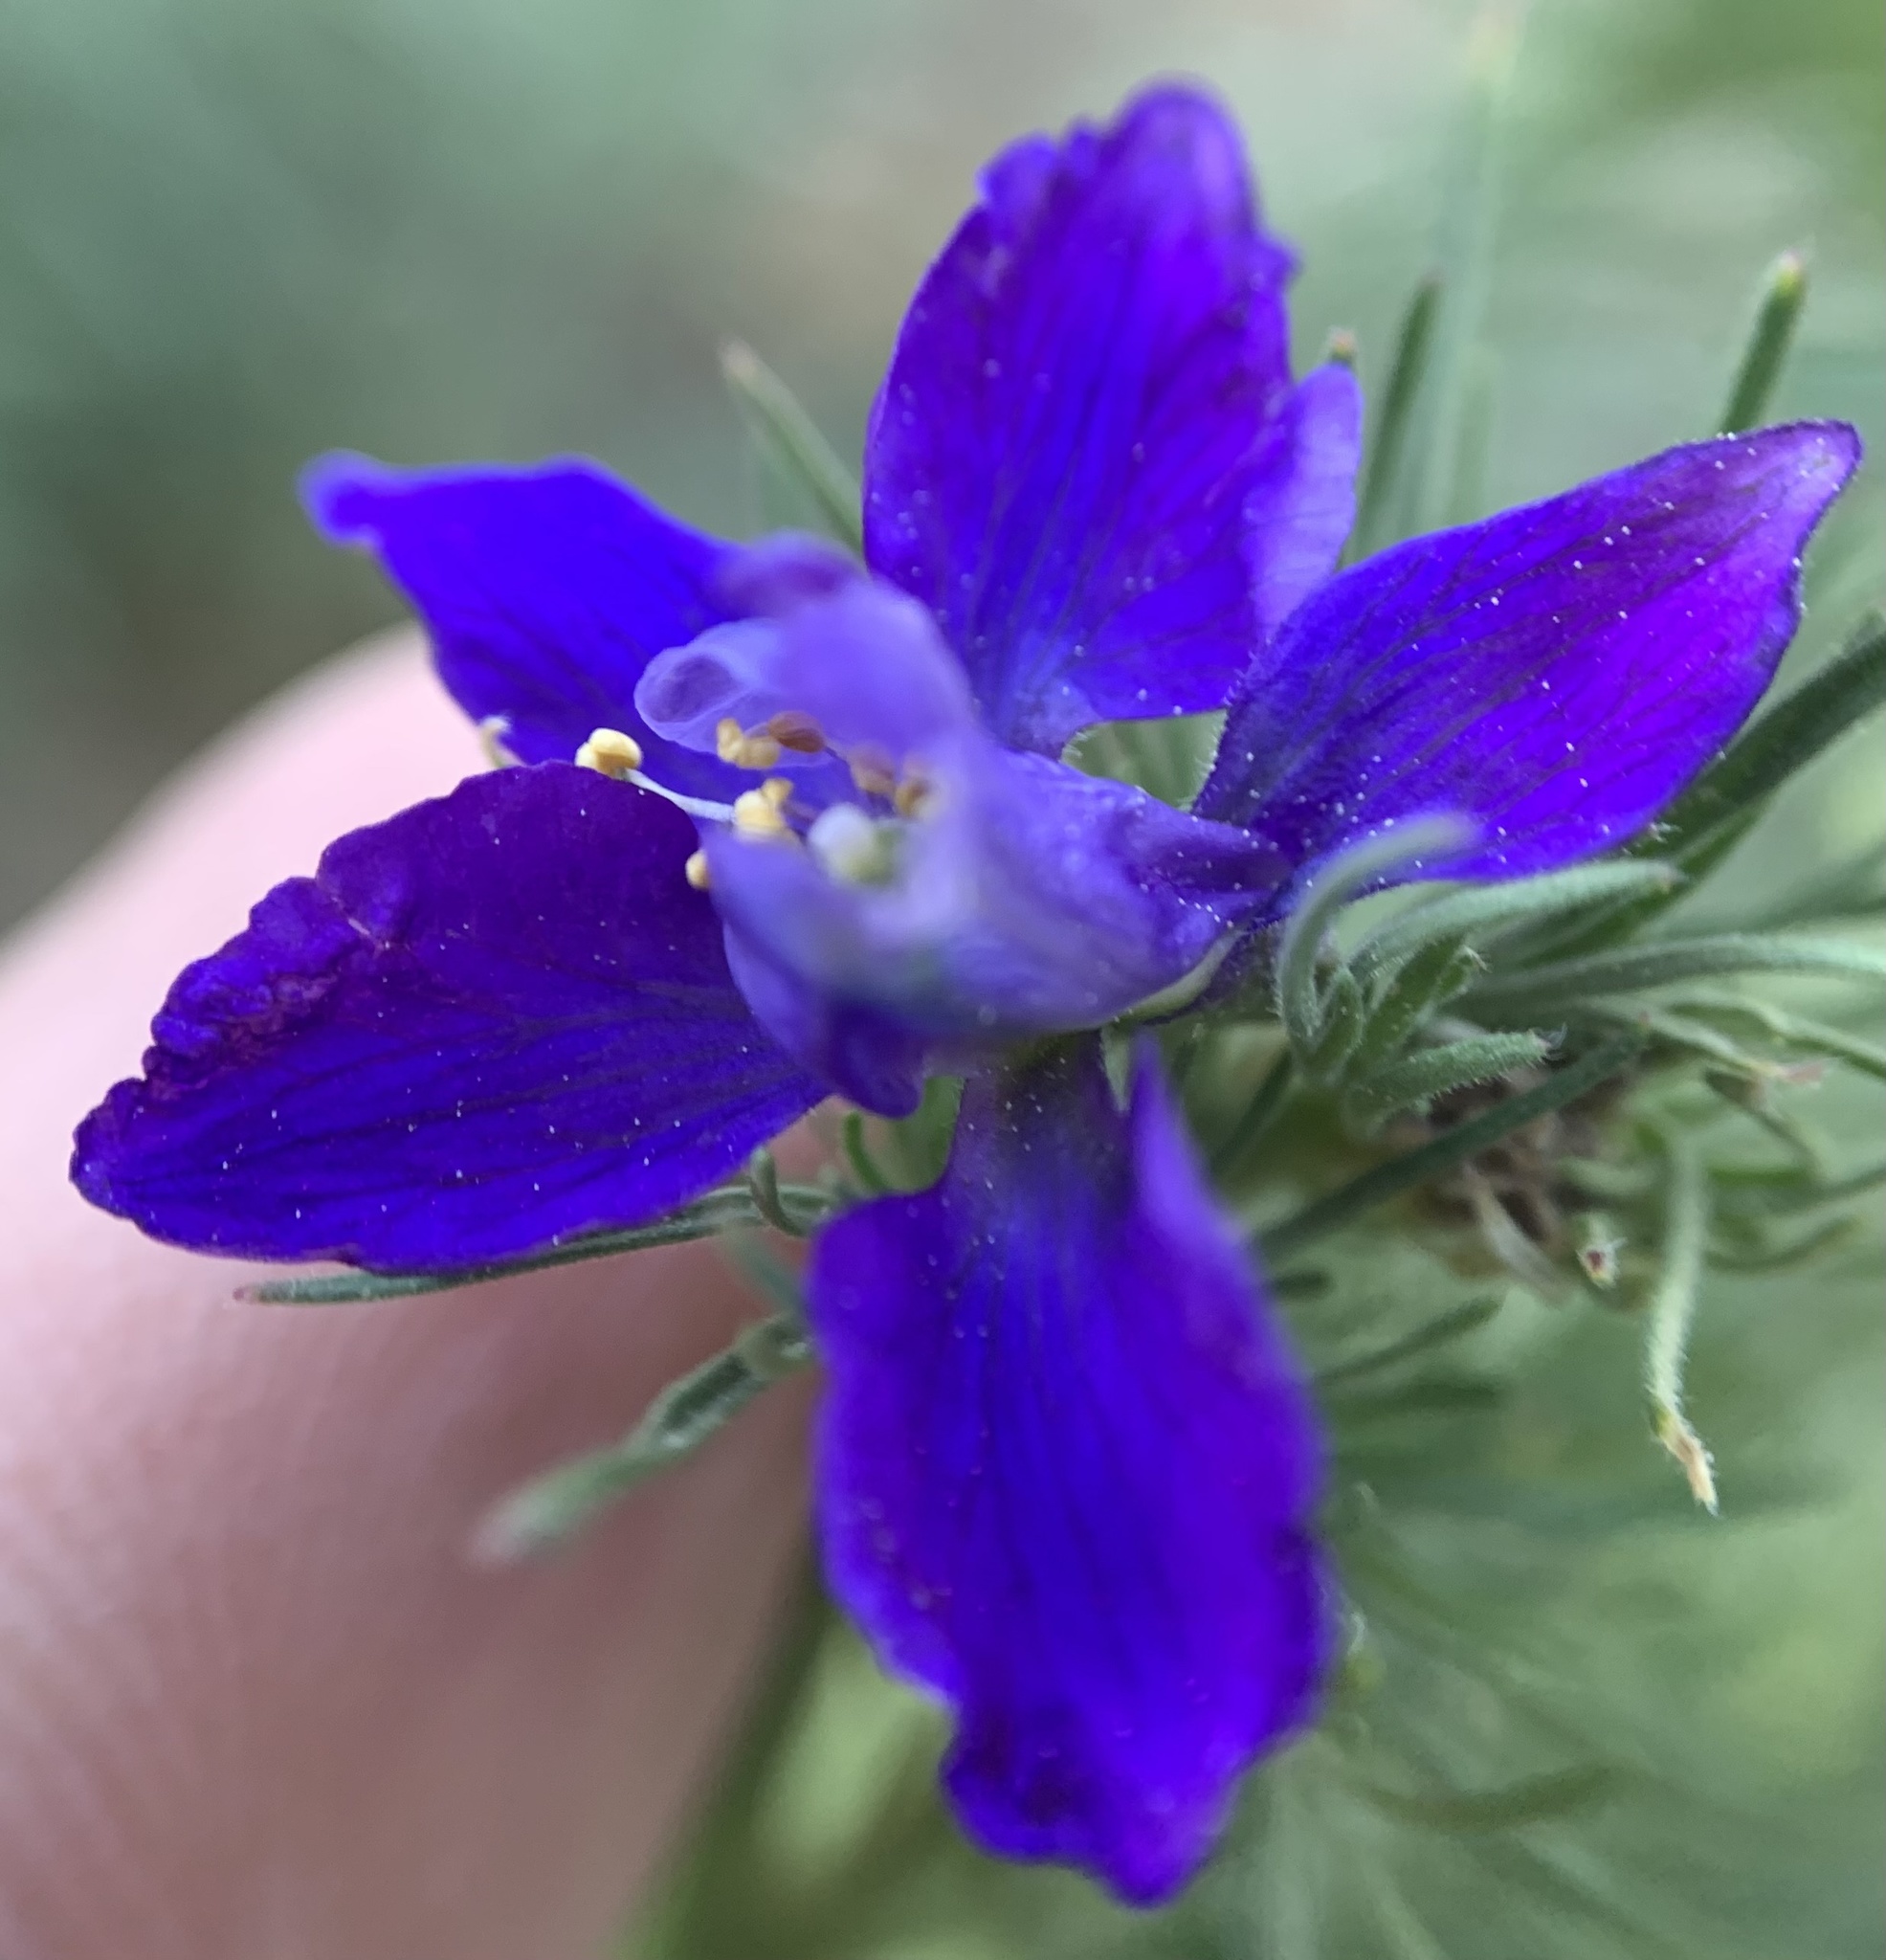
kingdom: Plantae
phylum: Tracheophyta
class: Magnoliopsida
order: Ranunculales
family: Ranunculaceae
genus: Delphinium
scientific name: Delphinium ajacis
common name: Doubtful knight's-spur
